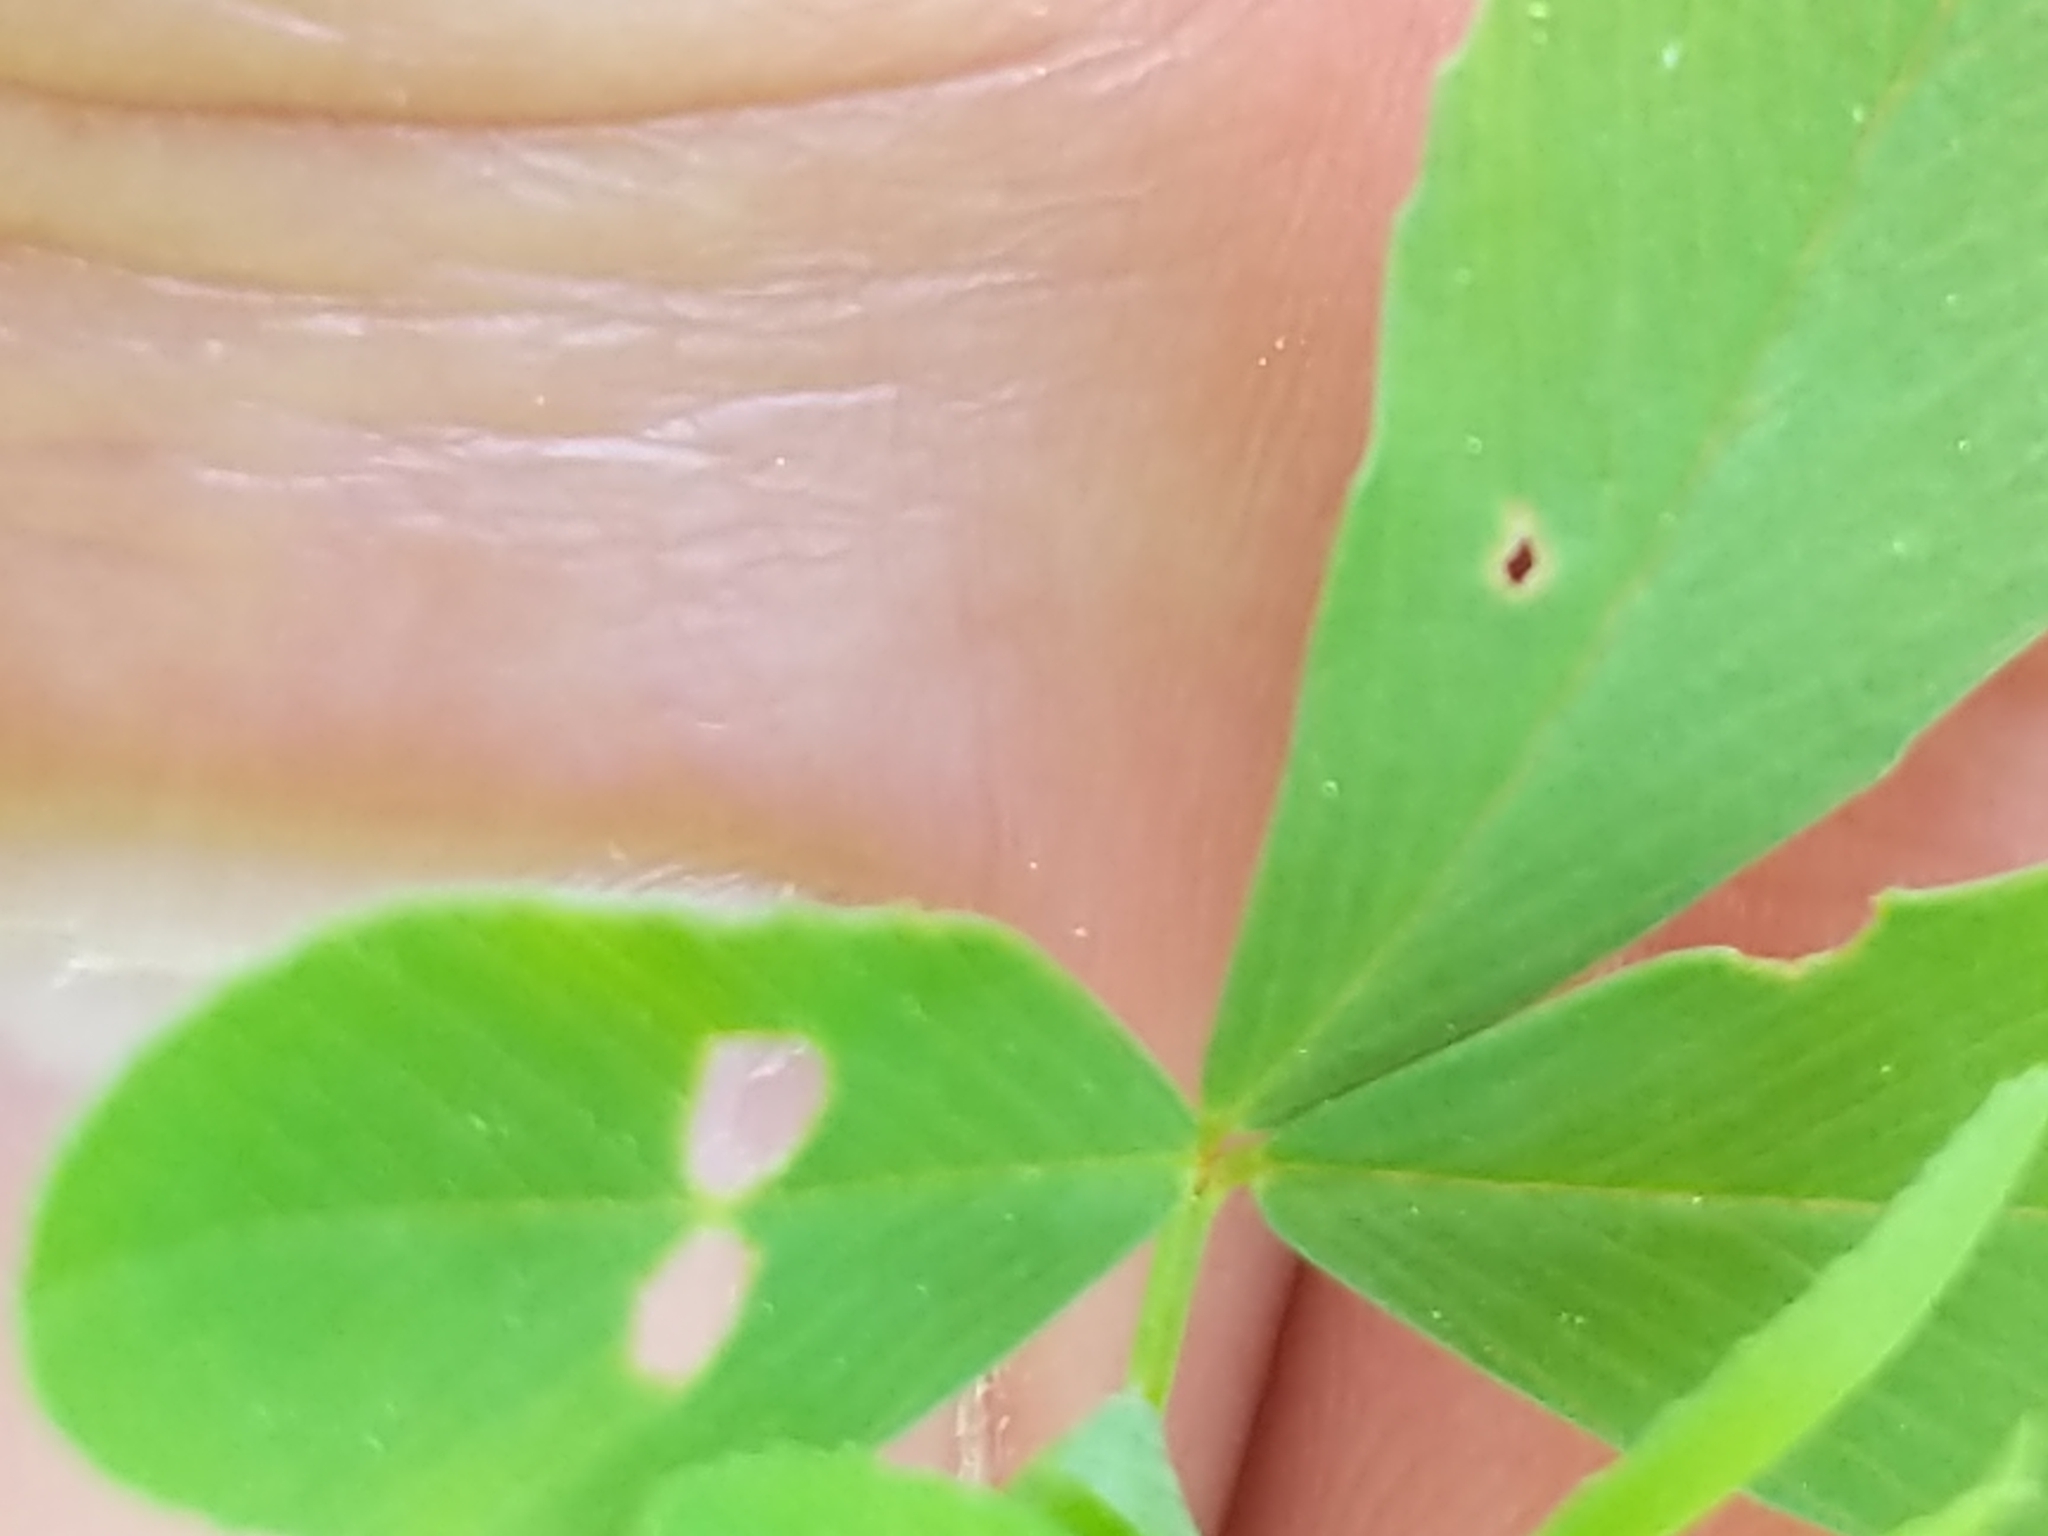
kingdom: Plantae
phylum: Tracheophyta
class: Magnoliopsida
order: Fabales
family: Fabaceae
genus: Trifolium
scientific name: Trifolium aureum
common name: Golden clover
